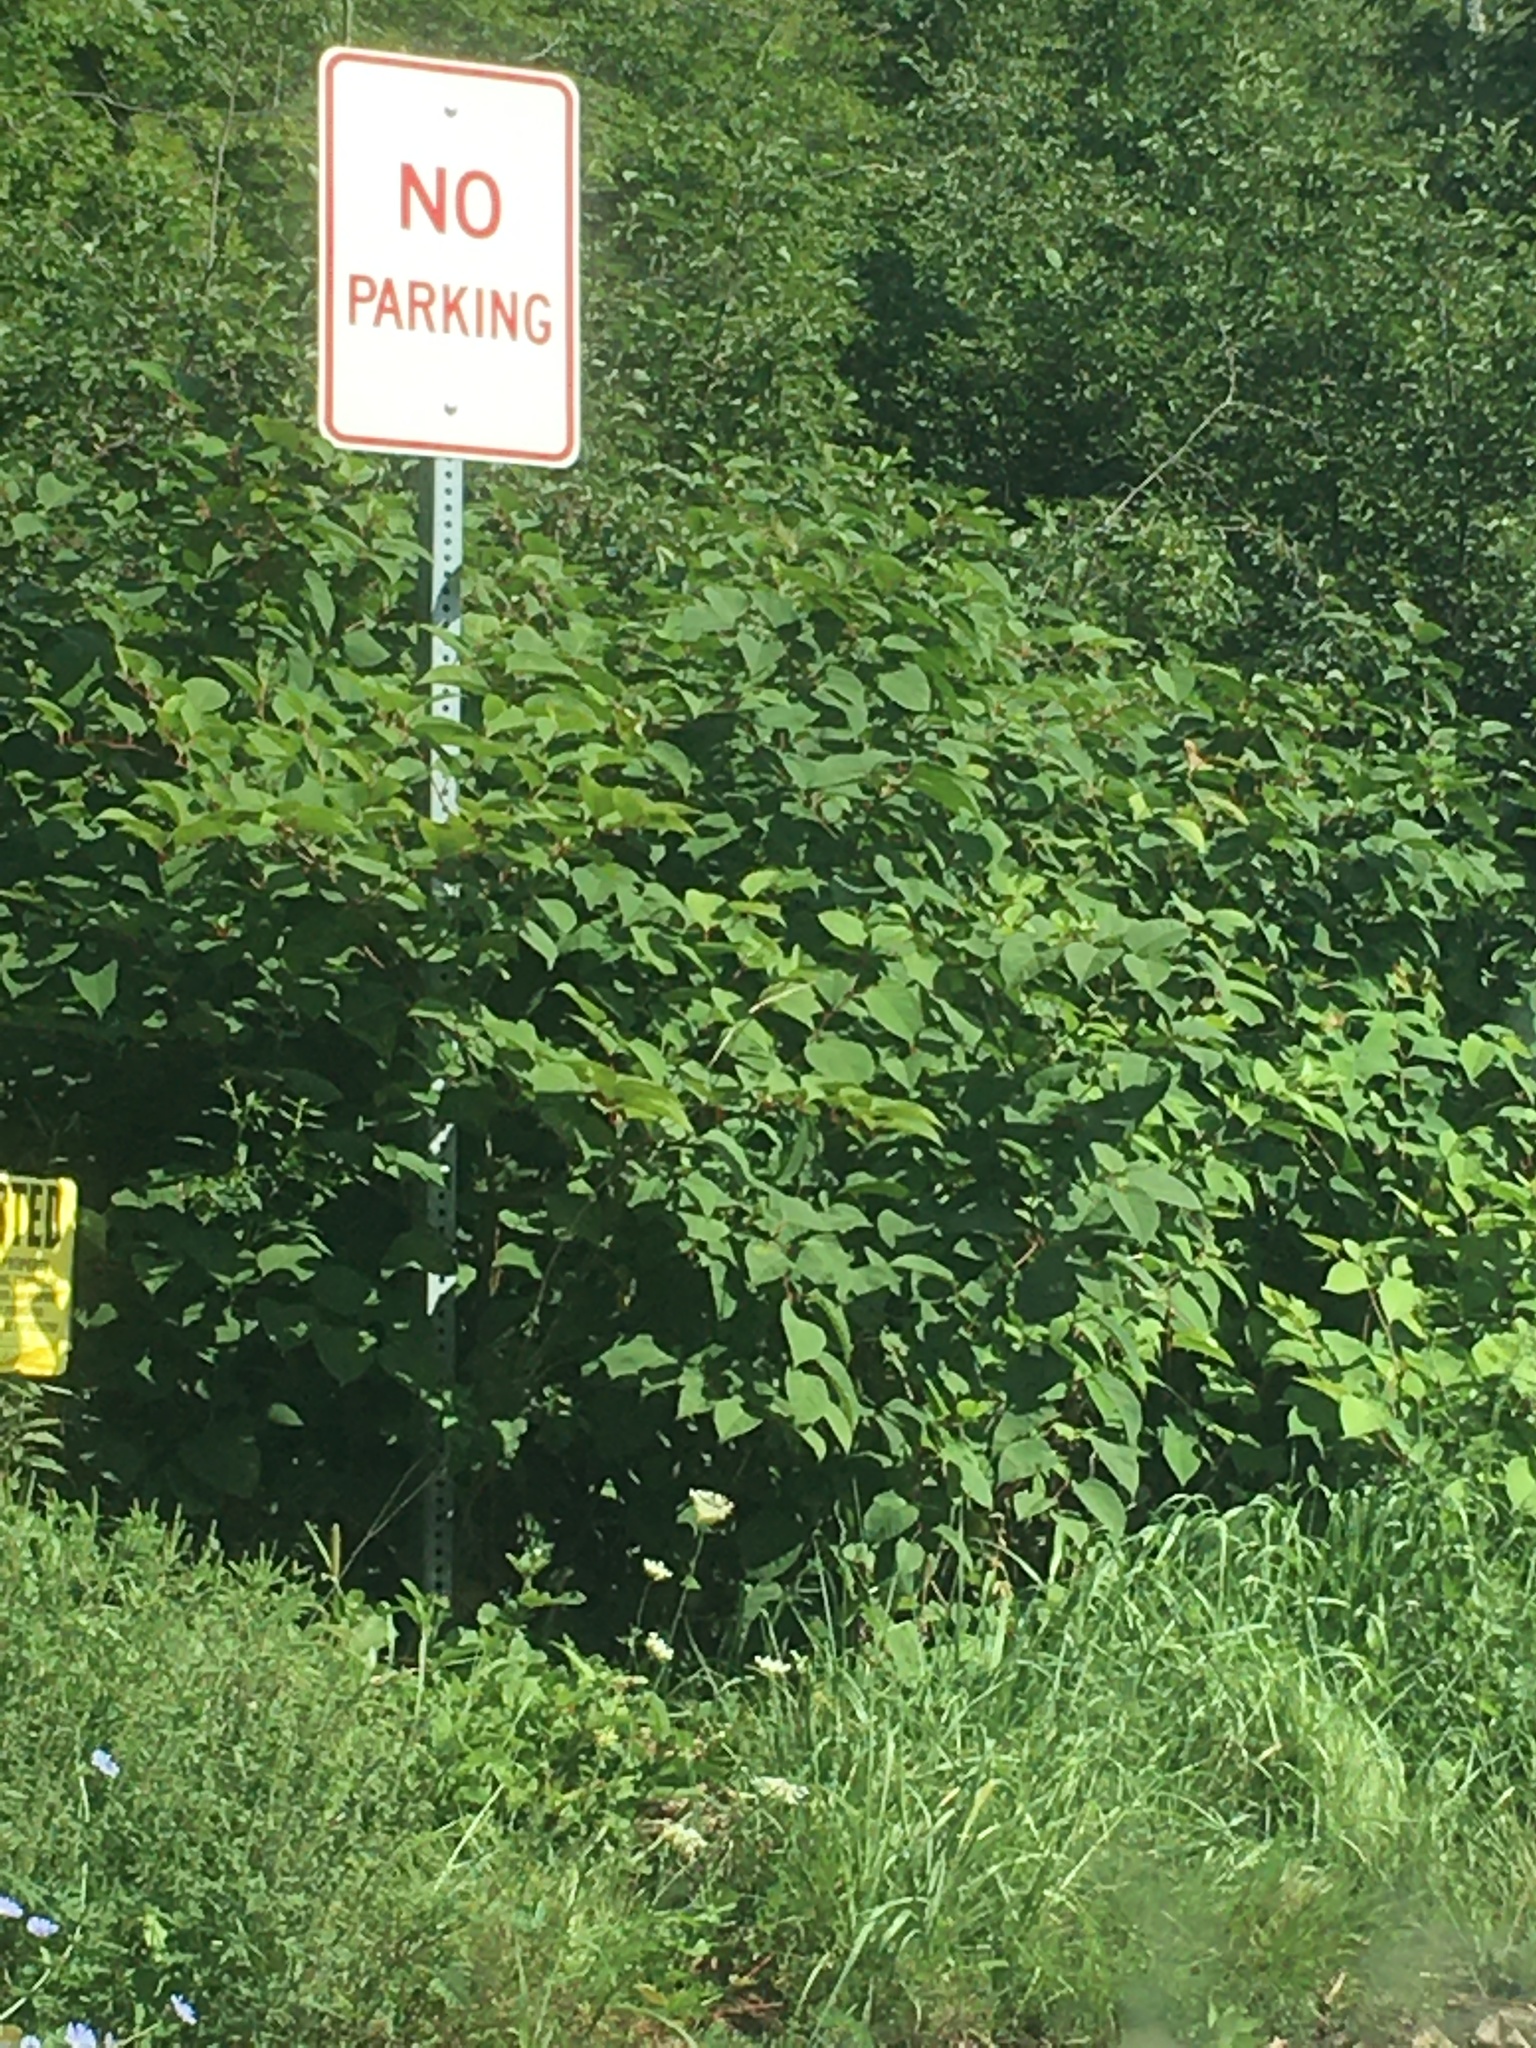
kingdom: Plantae
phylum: Tracheophyta
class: Magnoliopsida
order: Caryophyllales
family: Polygonaceae
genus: Reynoutria
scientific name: Reynoutria japonica
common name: Japanese knotweed
